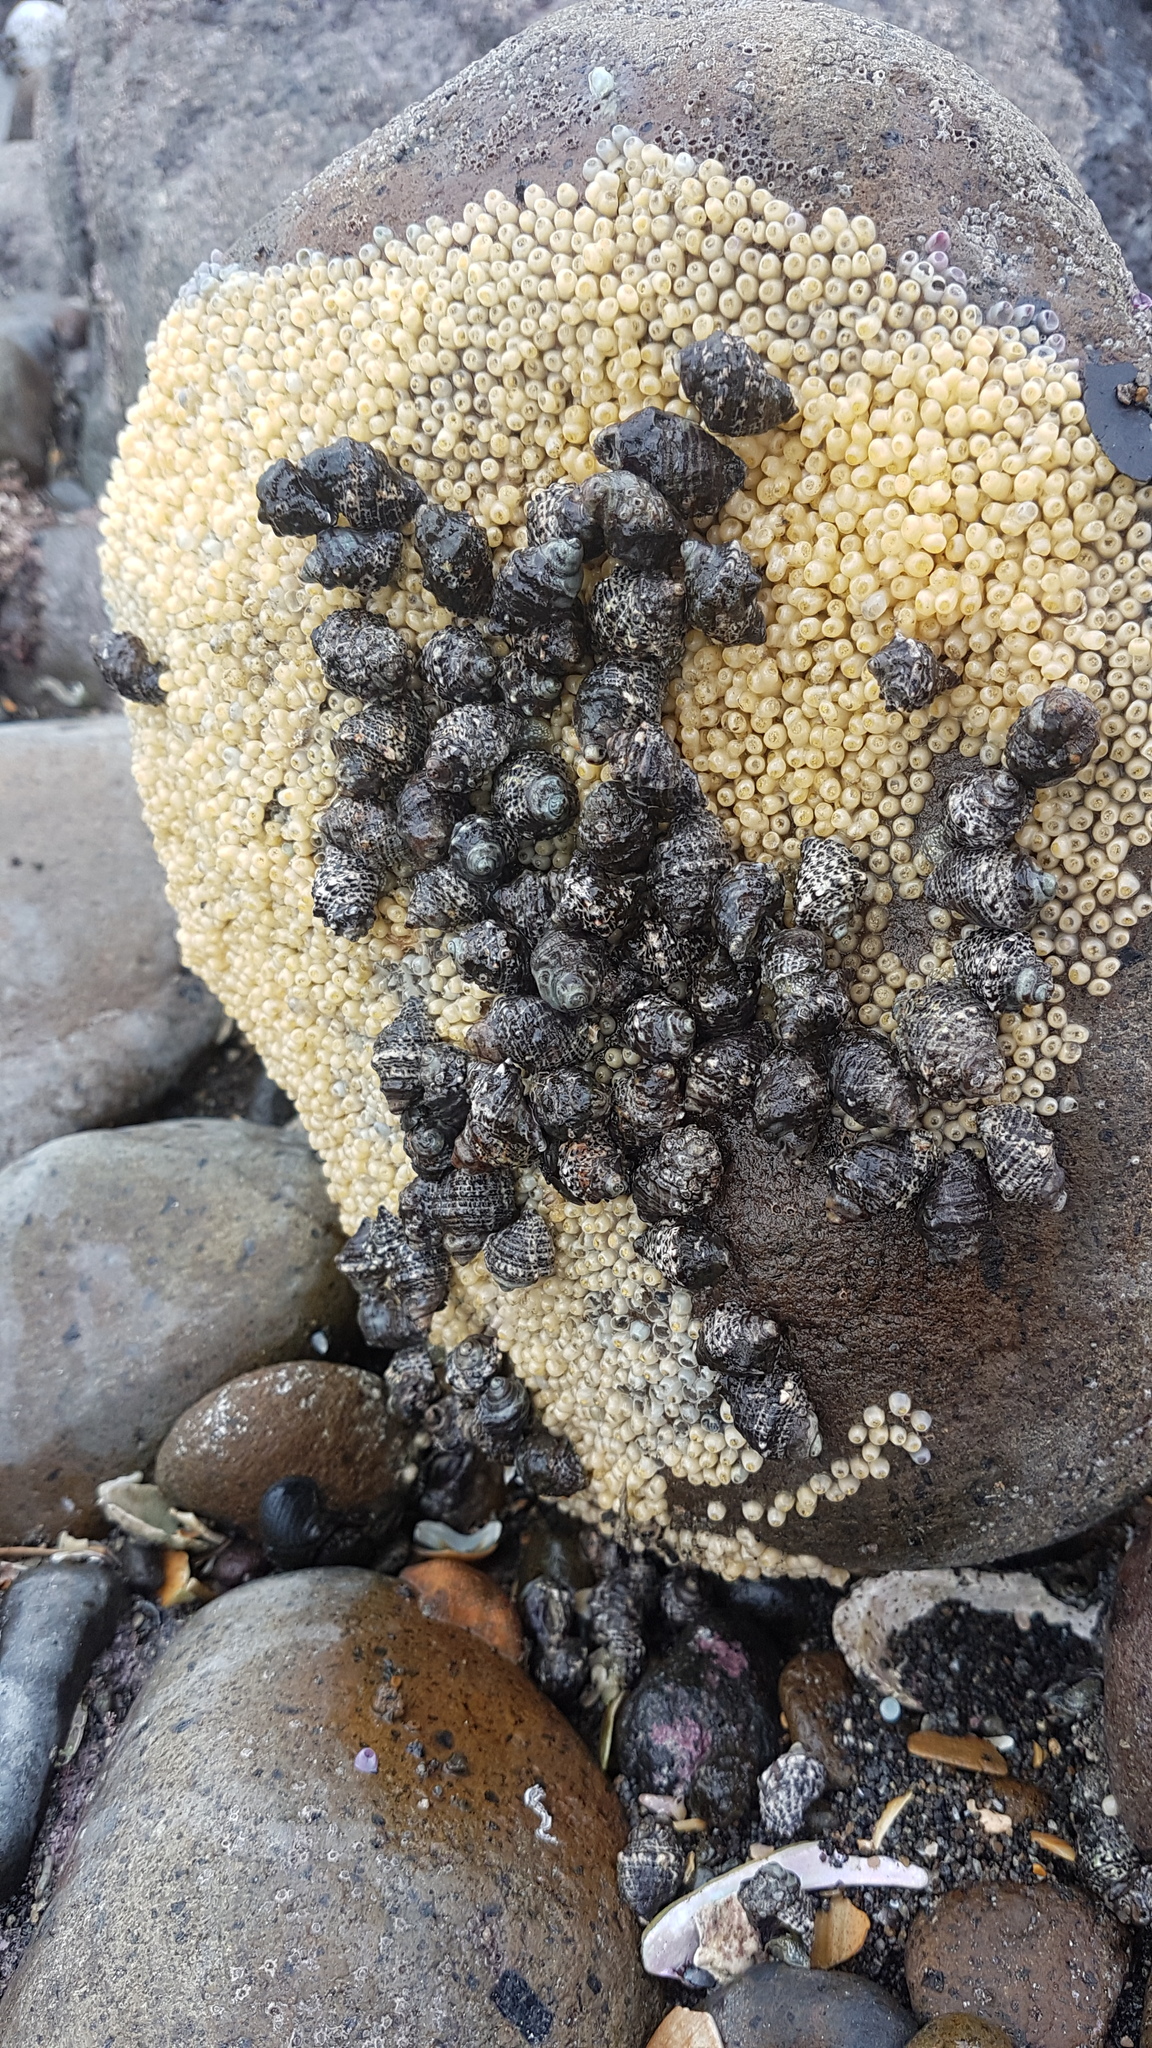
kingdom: Animalia
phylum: Mollusca
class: Gastropoda
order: Neogastropoda
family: Muricidae
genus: Haustrum
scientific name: Haustrum scobina
